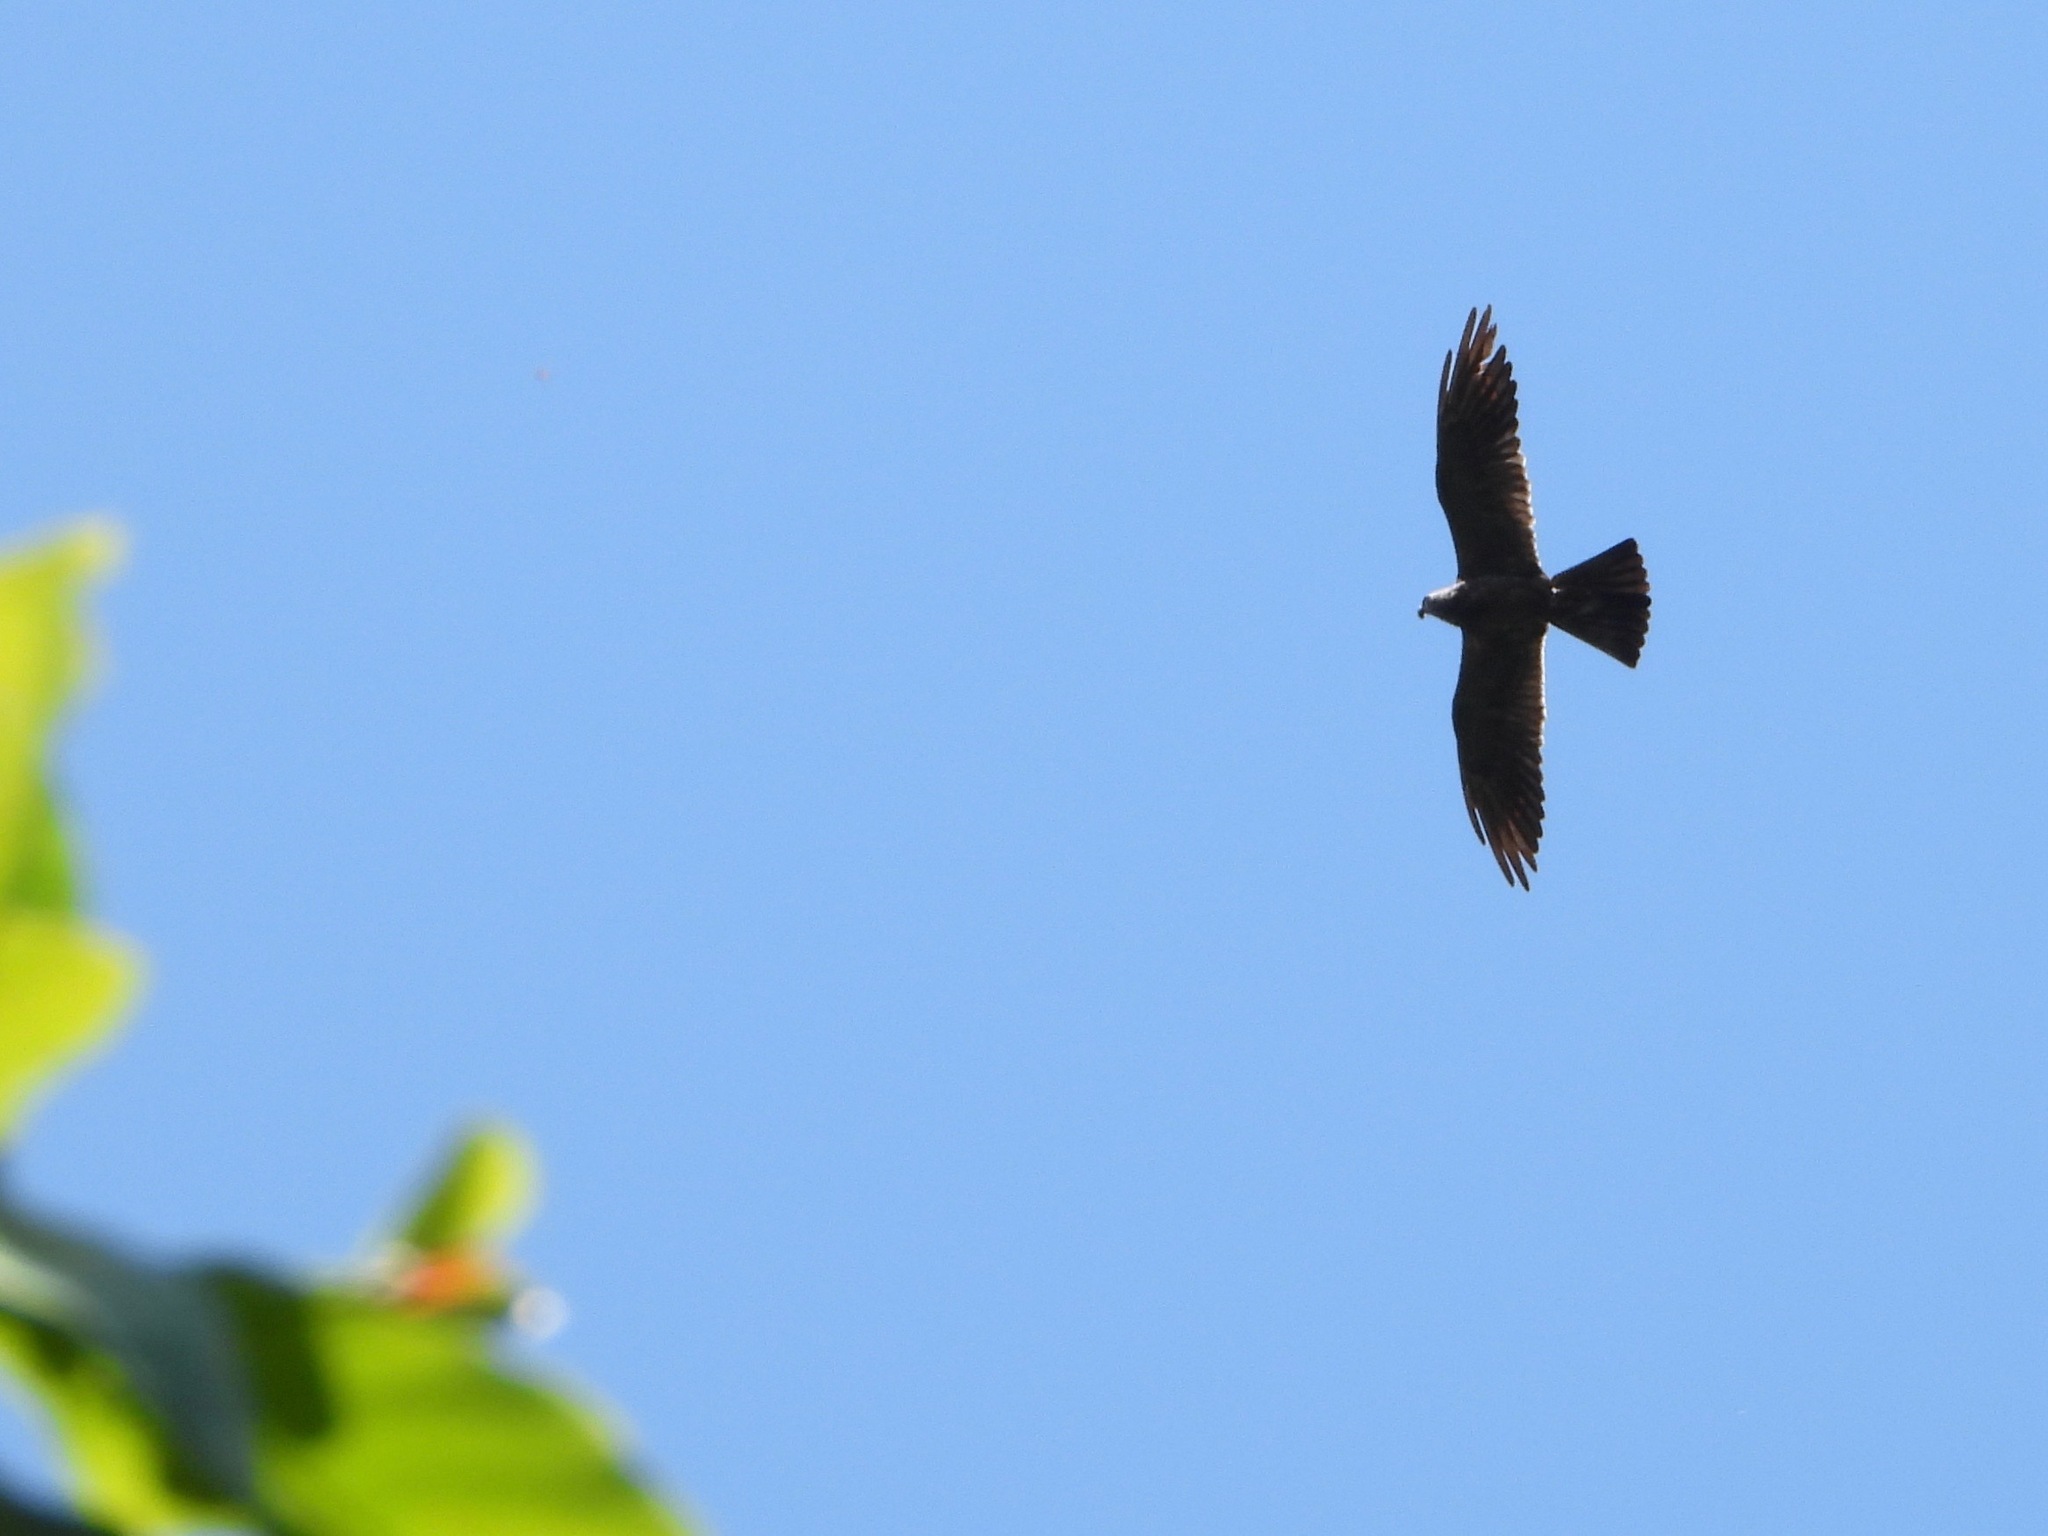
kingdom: Animalia
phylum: Chordata
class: Aves
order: Accipitriformes
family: Accipitridae
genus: Ictinia
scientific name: Ictinia mississippiensis
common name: Mississippi kite
